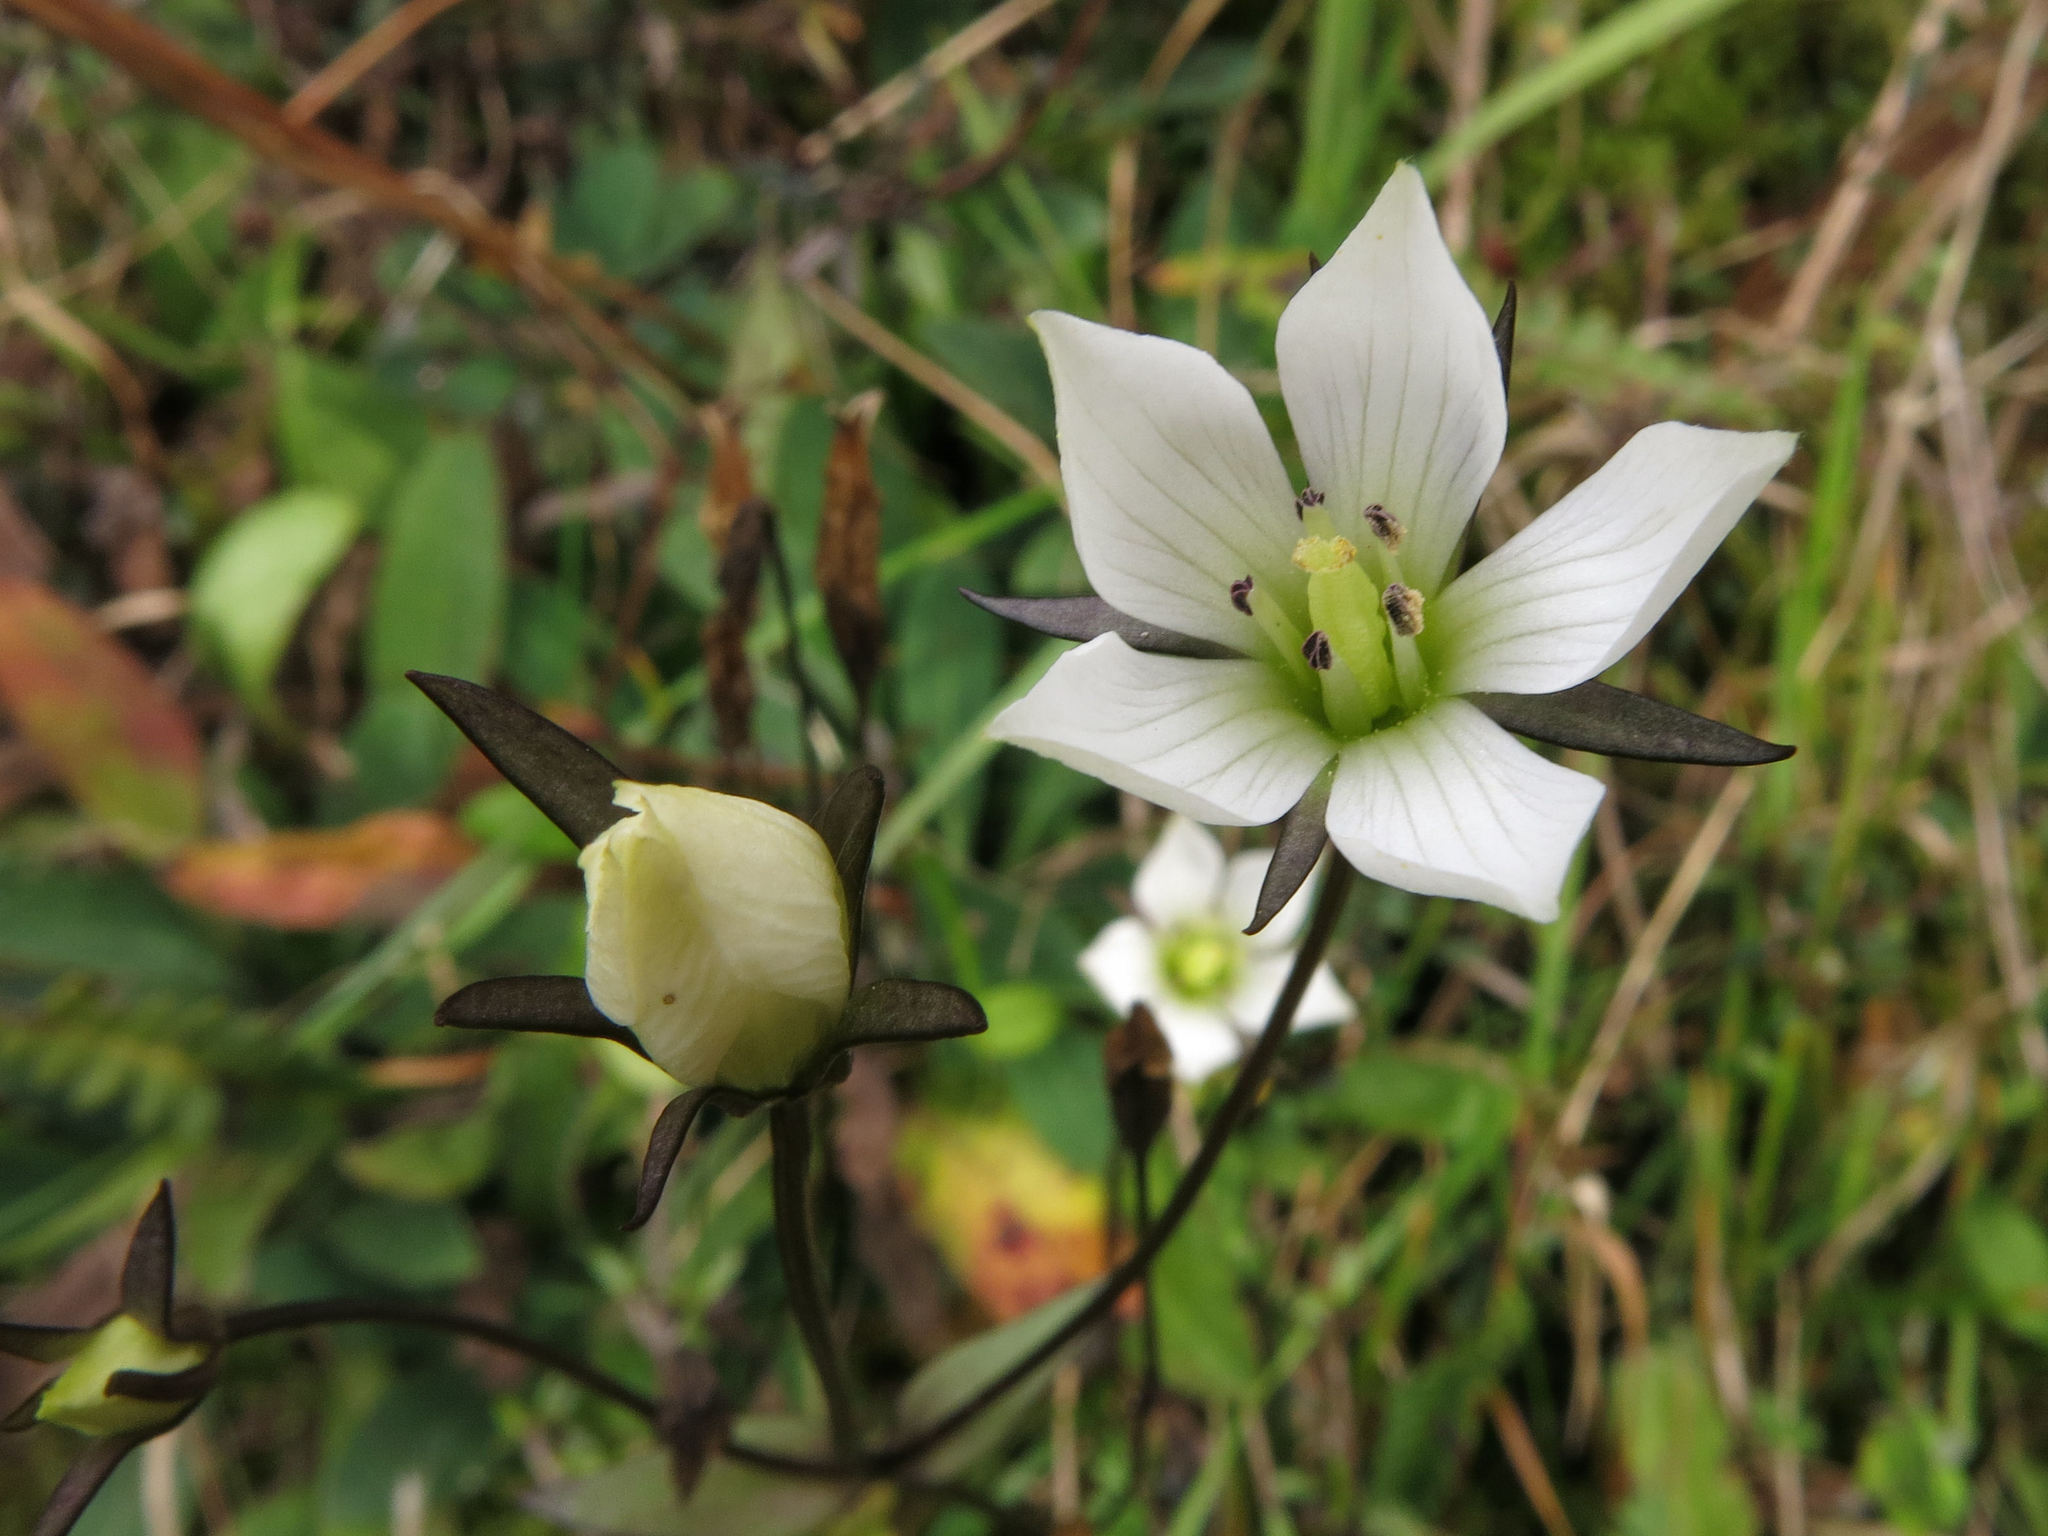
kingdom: Plantae
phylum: Tracheophyta
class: Magnoliopsida
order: Gentianales
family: Gentianaceae
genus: Gentianella
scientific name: Gentianella grisebachii
